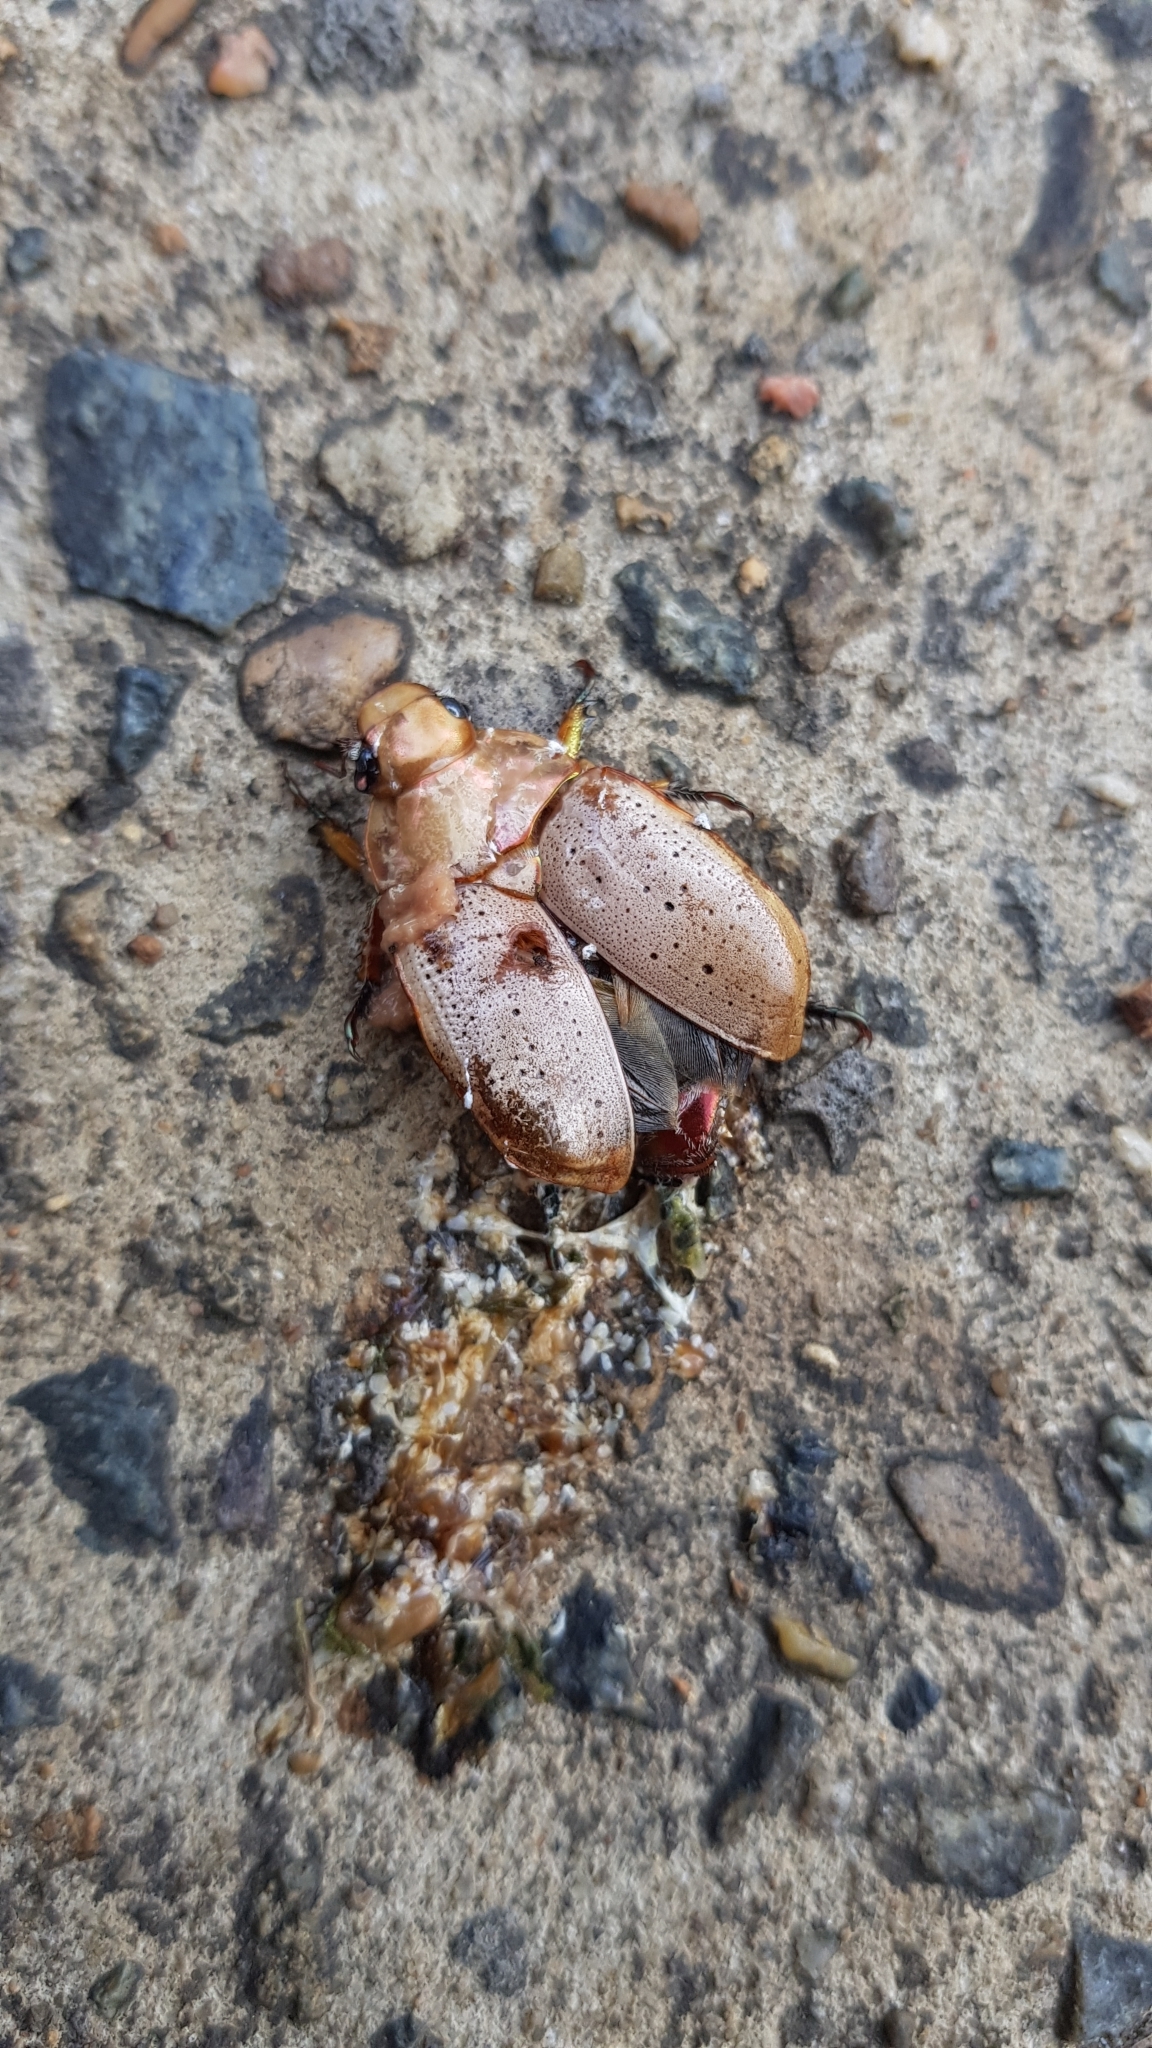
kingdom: Animalia
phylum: Arthropoda
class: Insecta
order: Coleoptera
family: Scarabaeidae
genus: Anoplognathus
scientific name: Anoplognathus porosus
